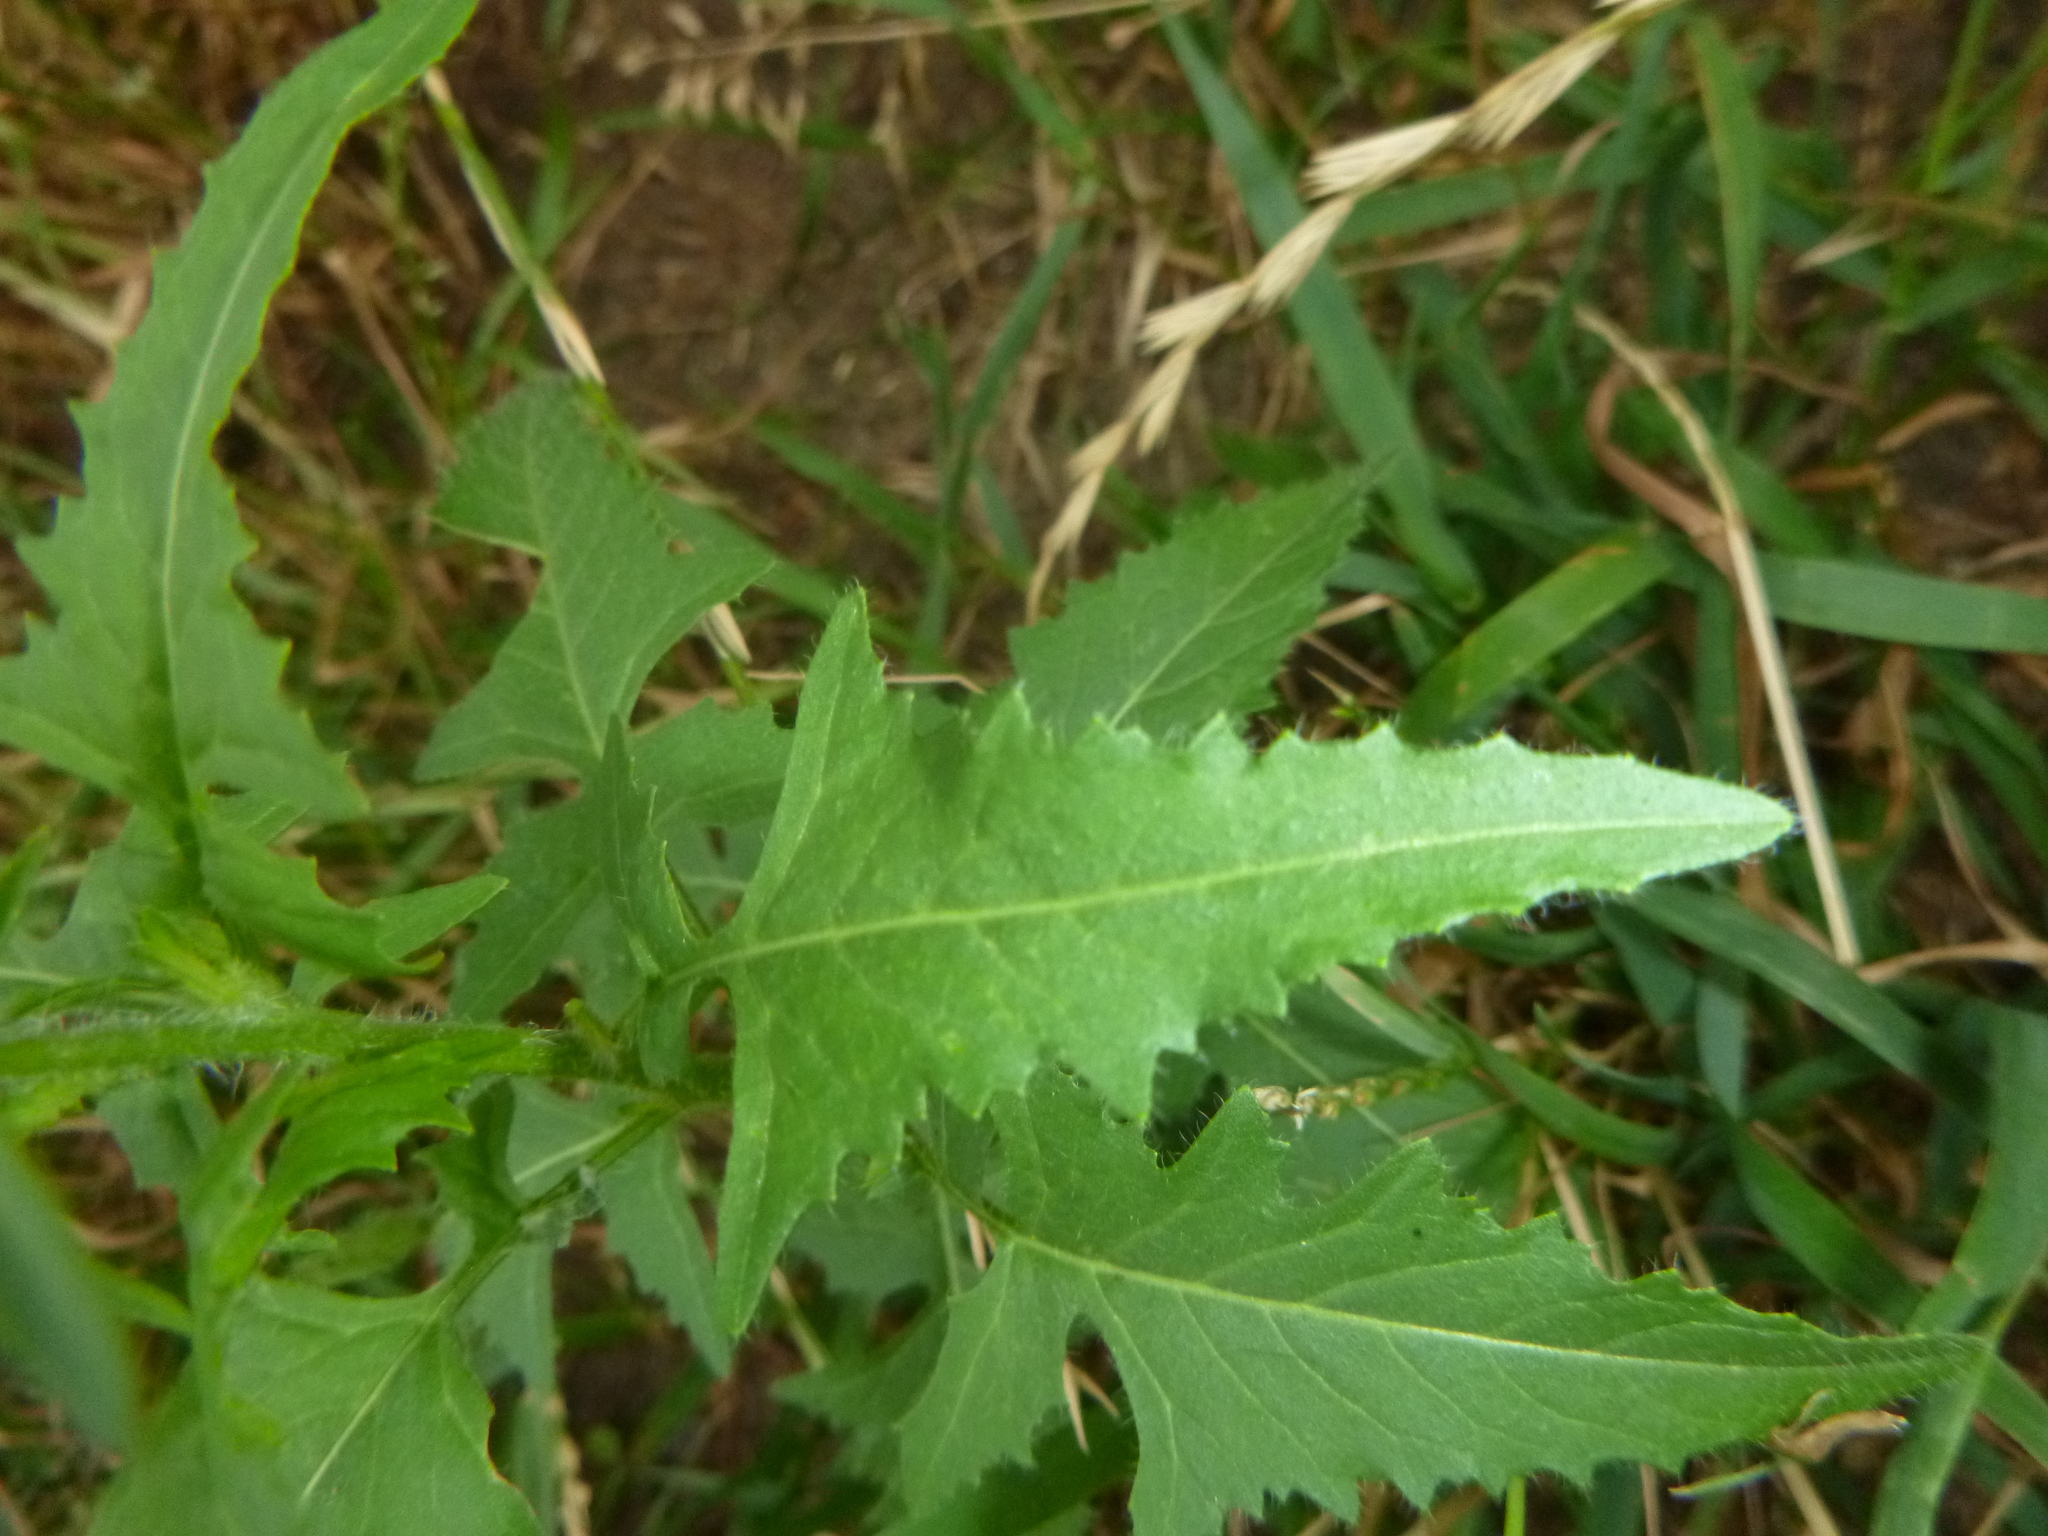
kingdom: Plantae
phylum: Tracheophyta
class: Magnoliopsida
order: Brassicales
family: Brassicaceae
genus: Sisymbrium
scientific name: Sisymbrium loeselii
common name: False london-rocket
